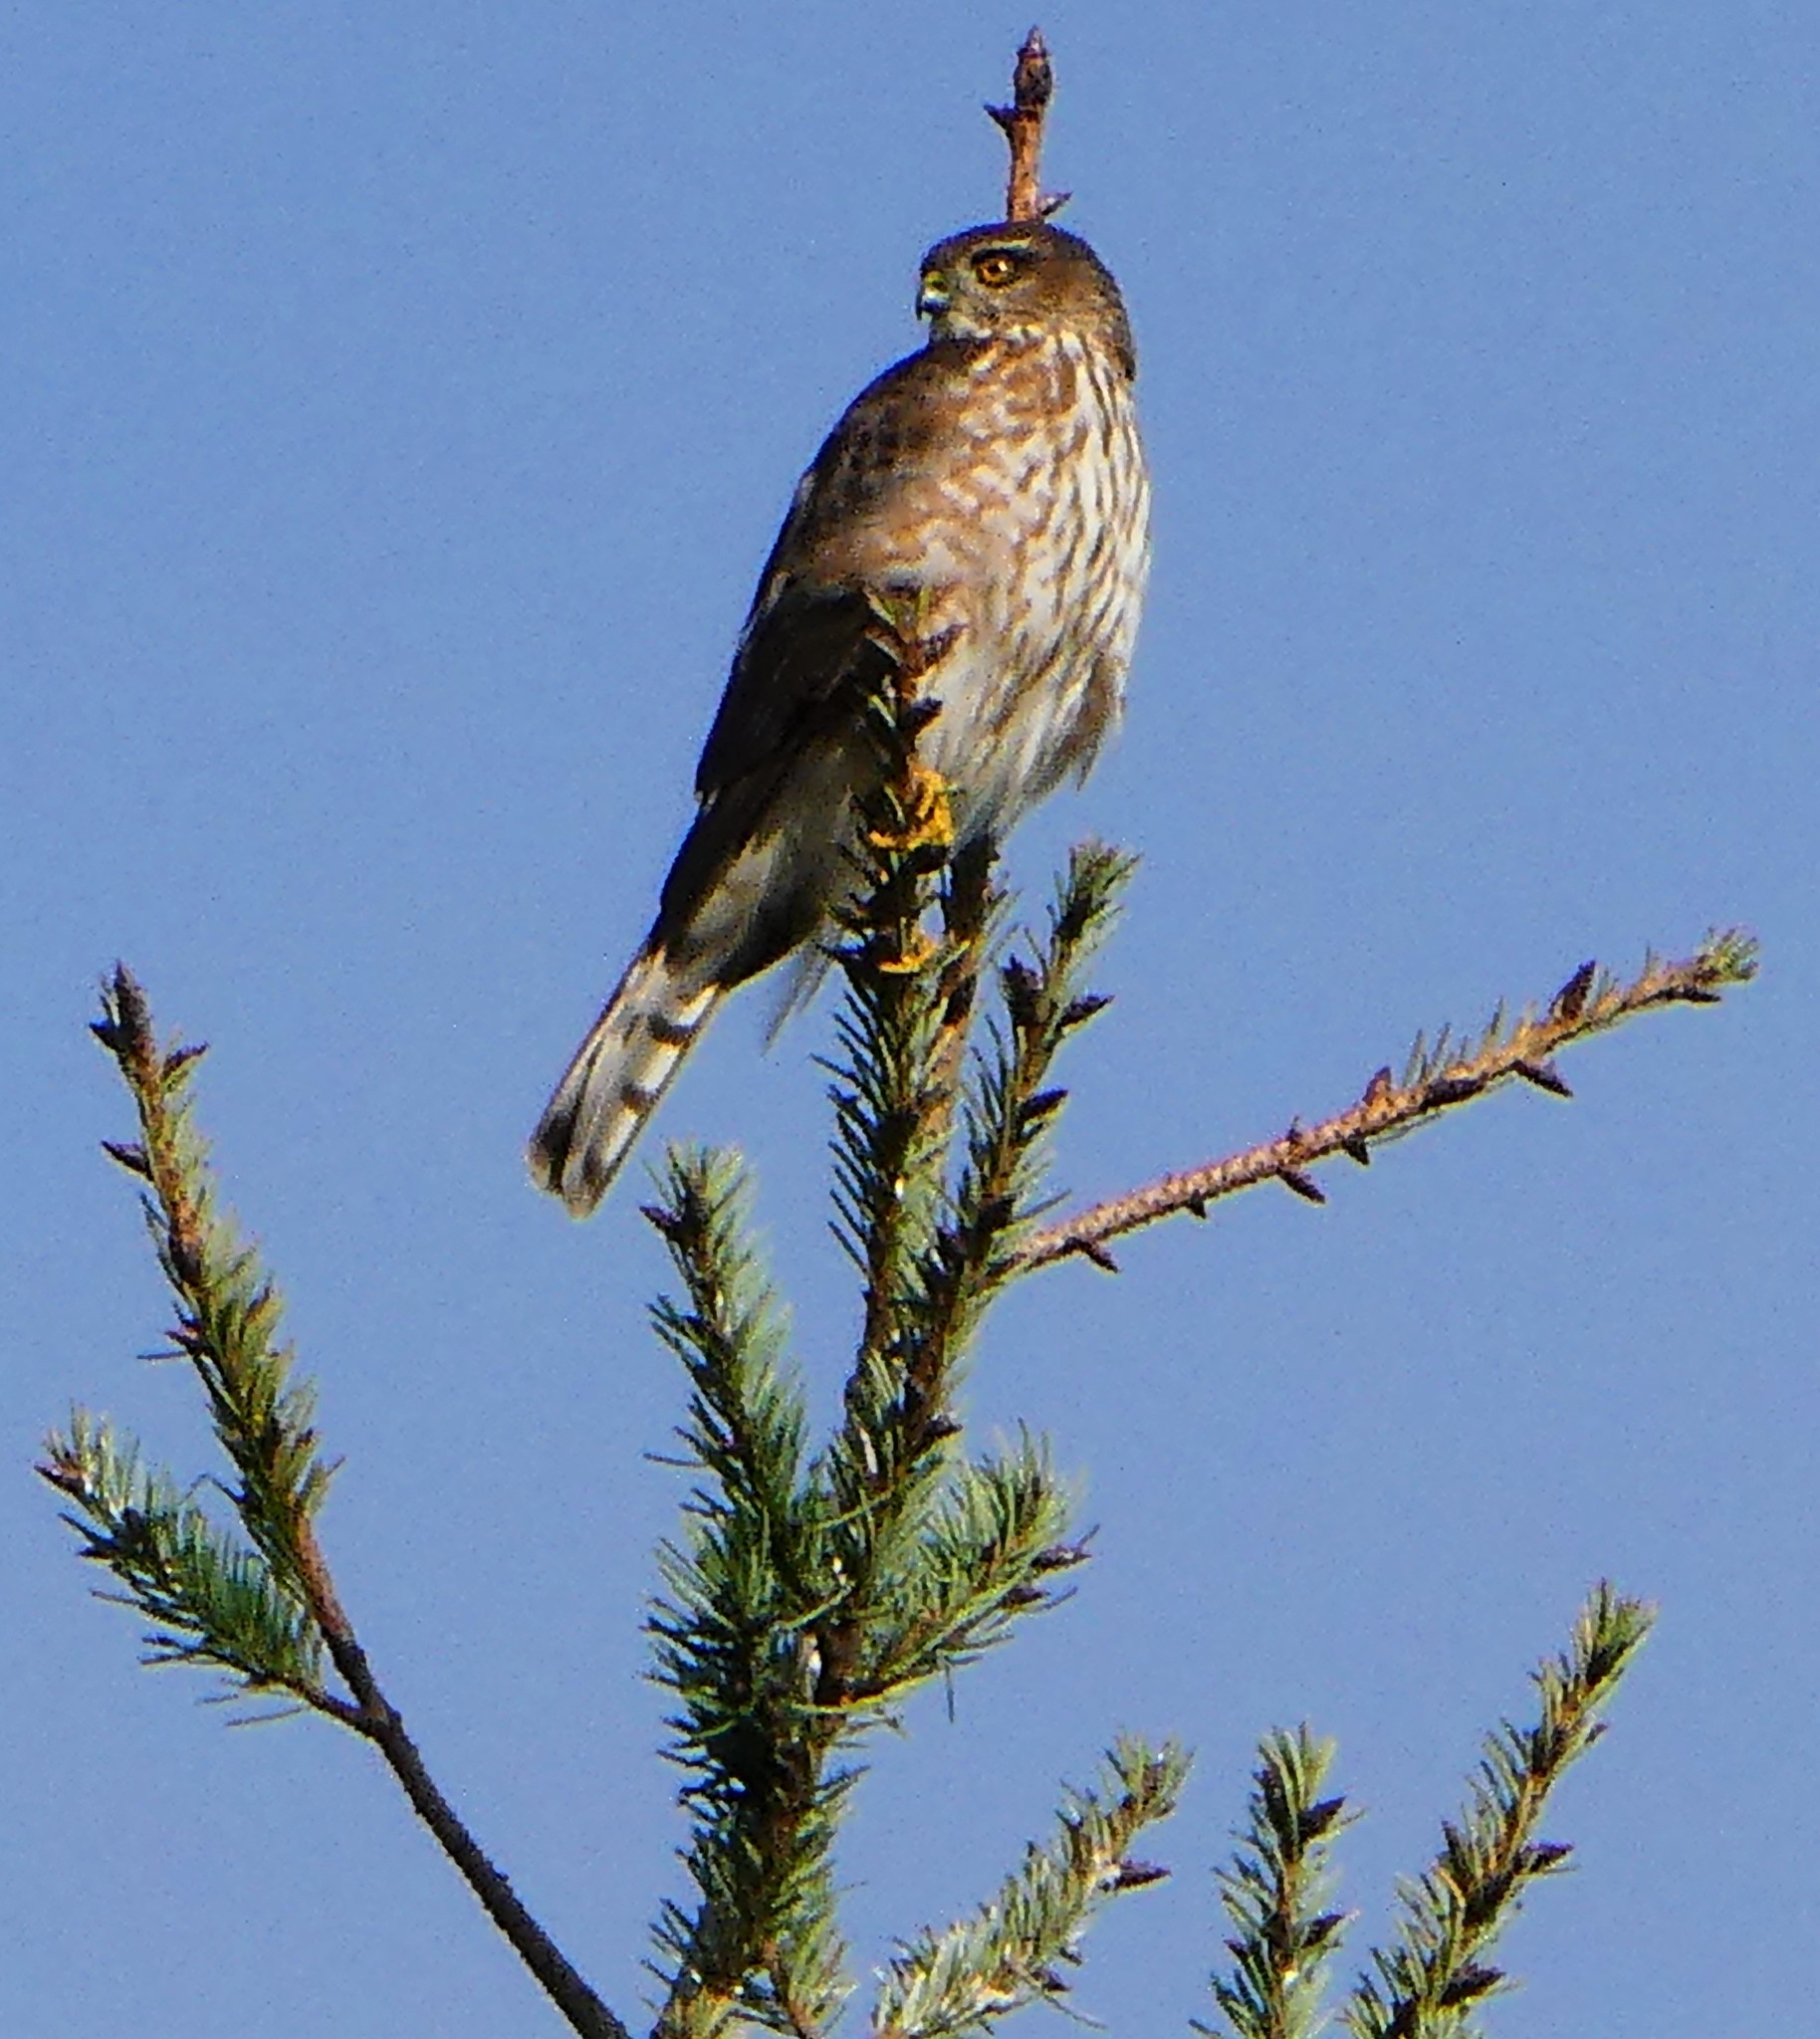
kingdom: Animalia
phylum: Chordata
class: Aves
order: Accipitriformes
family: Accipitridae
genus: Accipiter
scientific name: Accipiter striatus
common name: Sharp-shinned hawk
